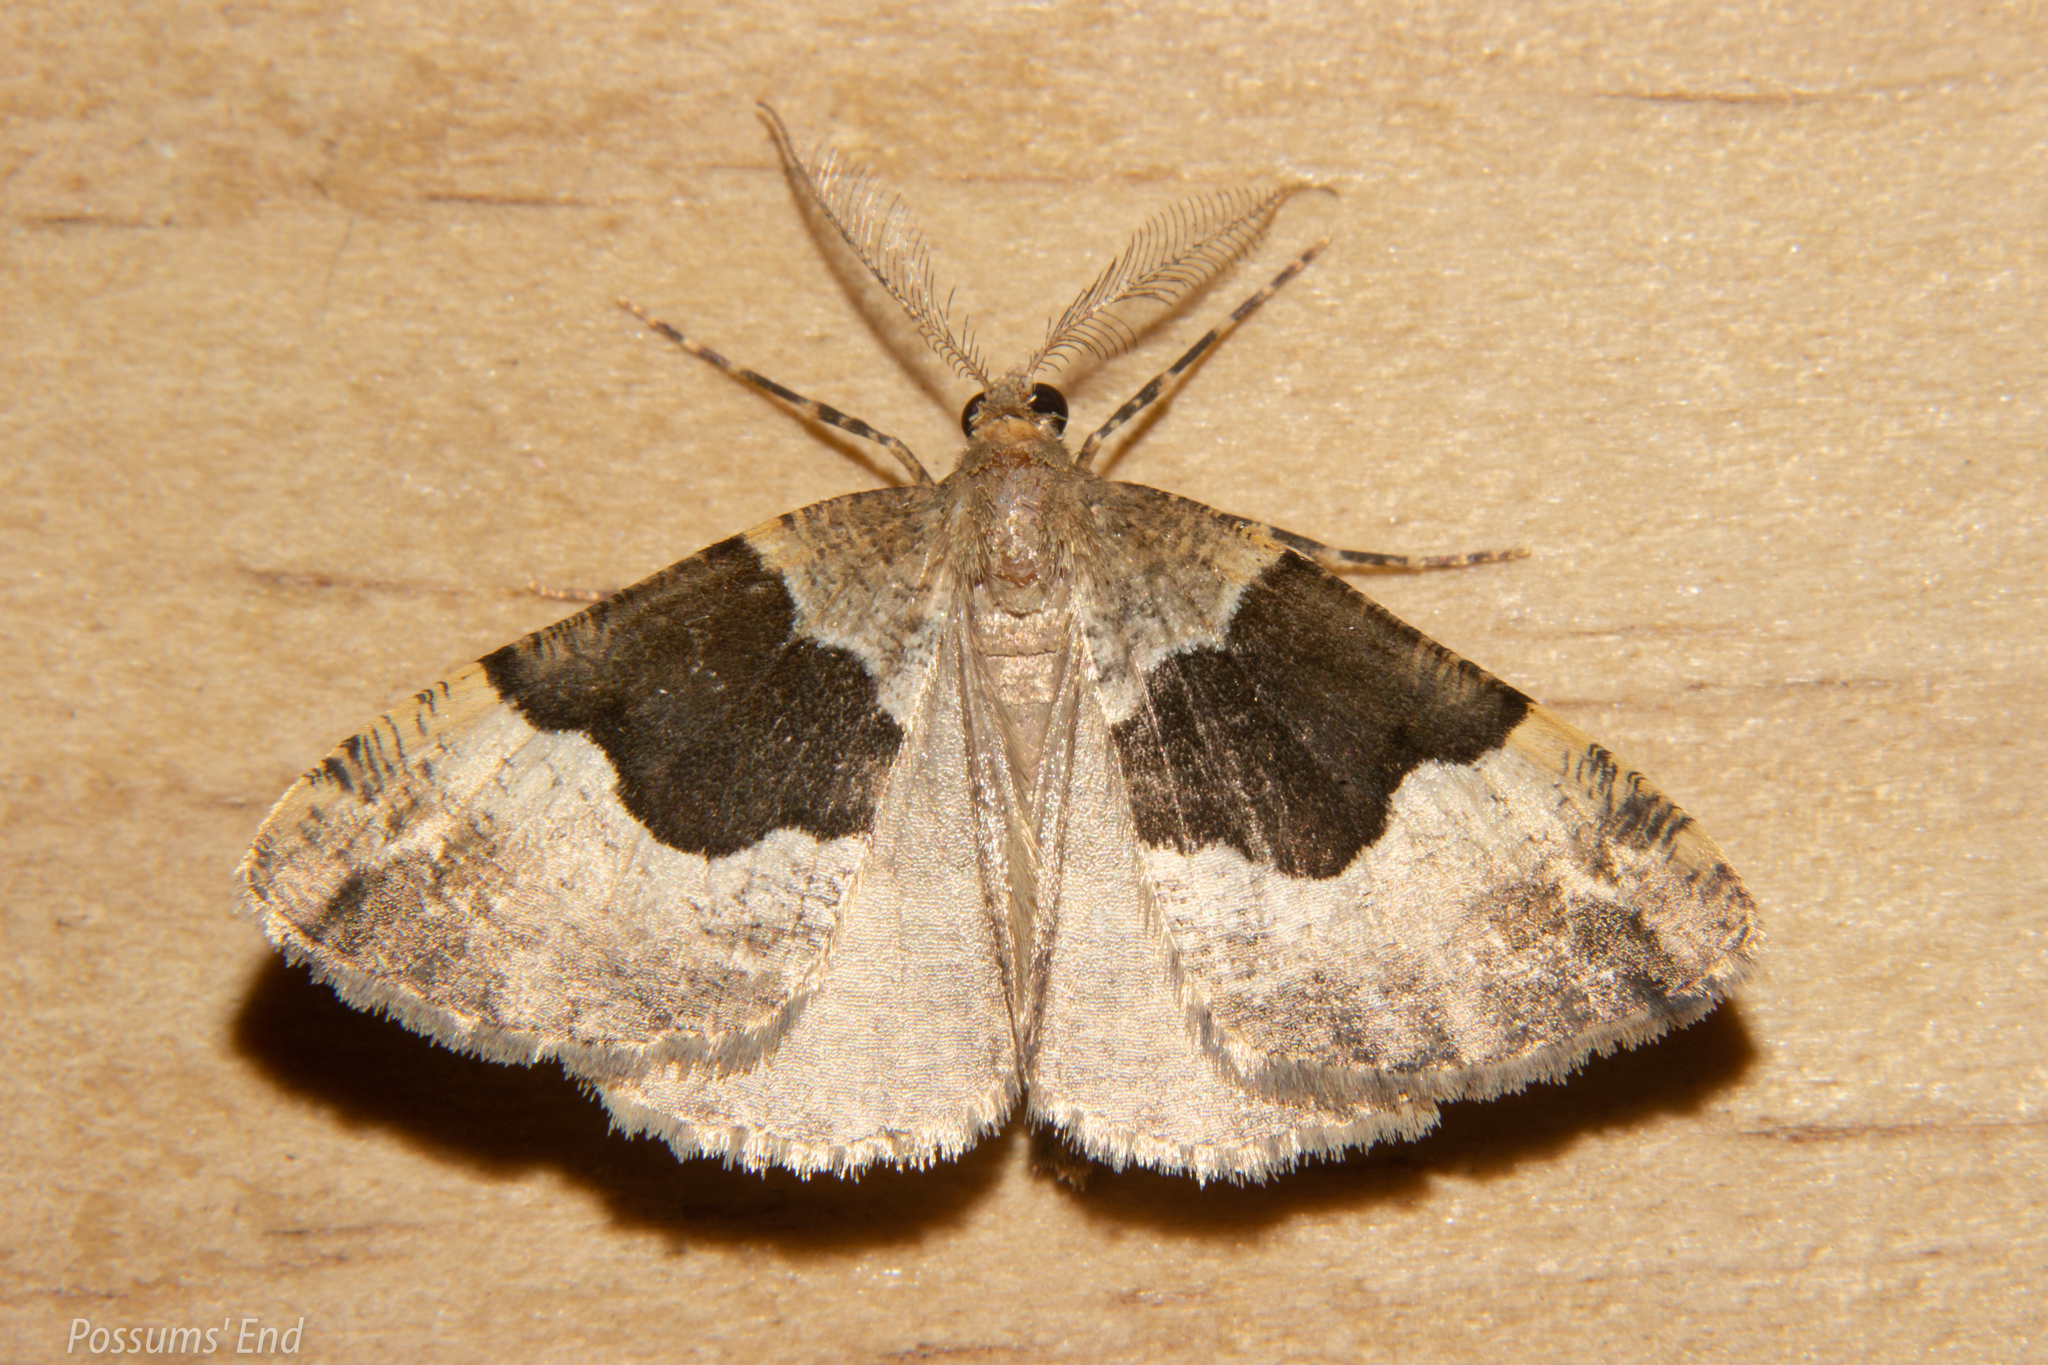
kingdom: Animalia
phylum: Arthropoda
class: Insecta
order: Lepidoptera
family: Geometridae
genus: Pseudocoremia
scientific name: Pseudocoremia
